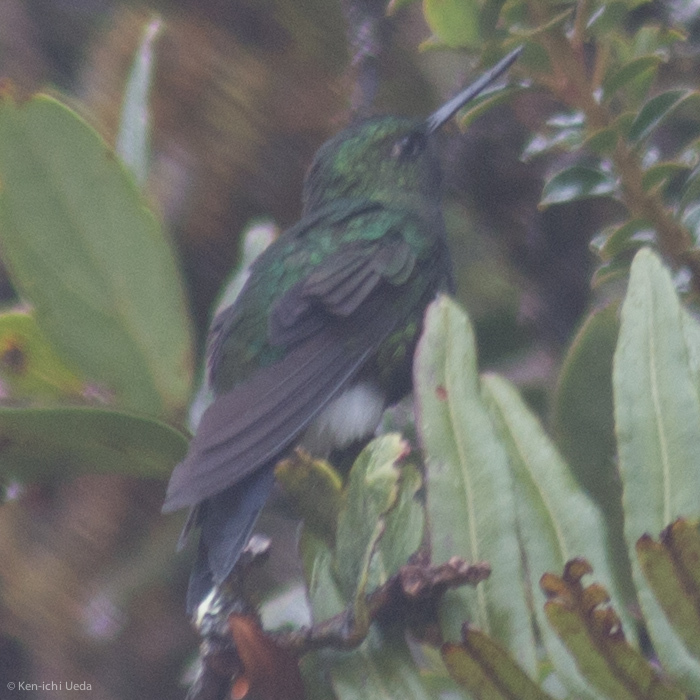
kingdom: Animalia
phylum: Chordata
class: Aves
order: Apodiformes
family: Trochilidae
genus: Eriocnemis
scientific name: Eriocnemis vestita
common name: Glowing puffleg
